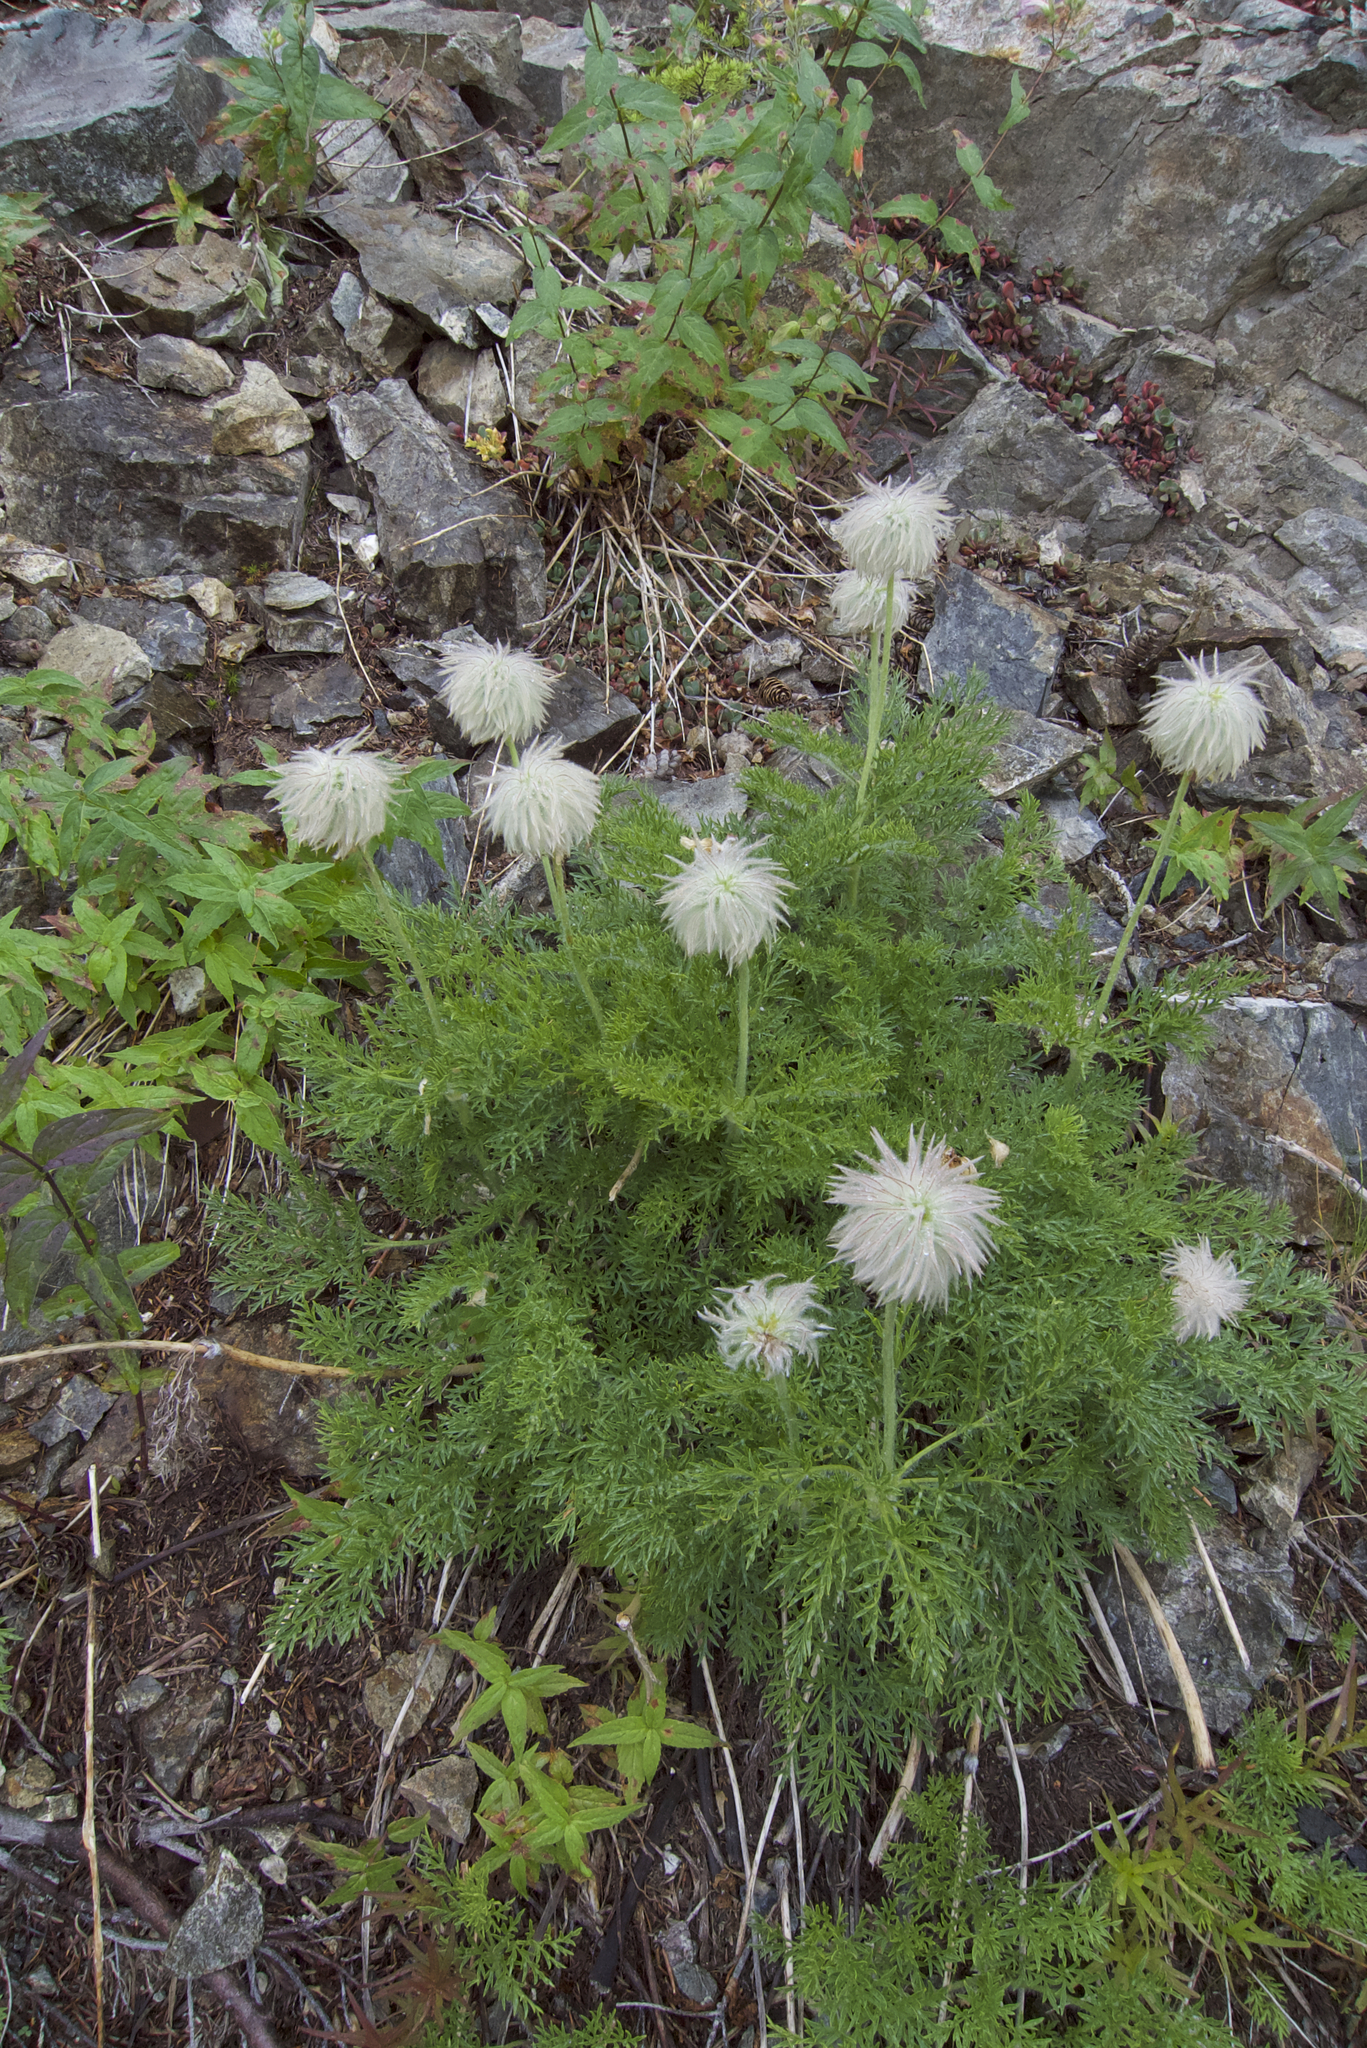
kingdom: Plantae
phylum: Tracheophyta
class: Magnoliopsida
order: Ranunculales
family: Ranunculaceae
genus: Pulsatilla
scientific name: Pulsatilla occidentalis
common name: Mountain pasqueflower
